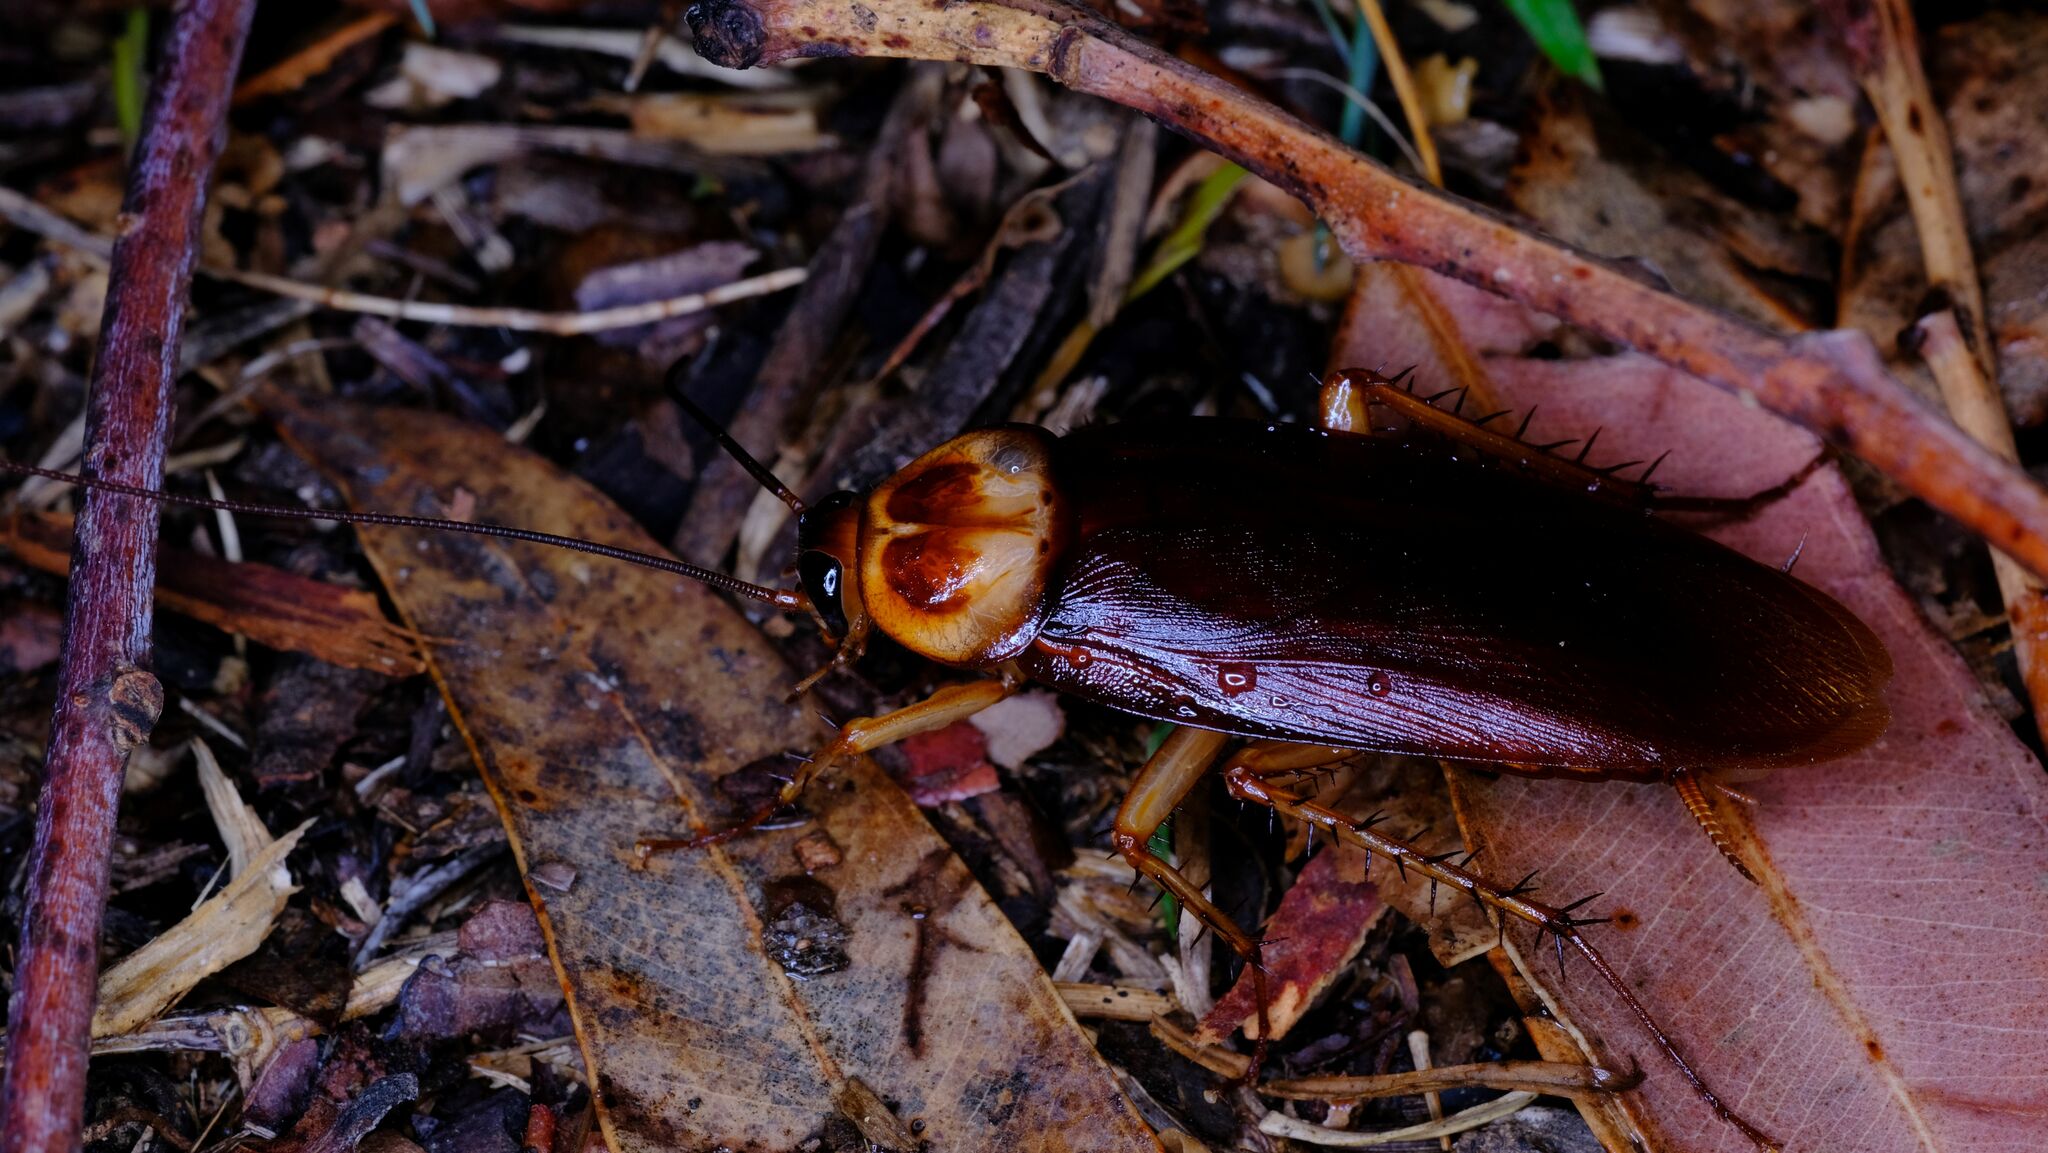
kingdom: Animalia
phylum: Arthropoda
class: Insecta
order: Blattodea
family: Blattidae
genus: Periplaneta
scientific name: Periplaneta americana
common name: American cockroach
